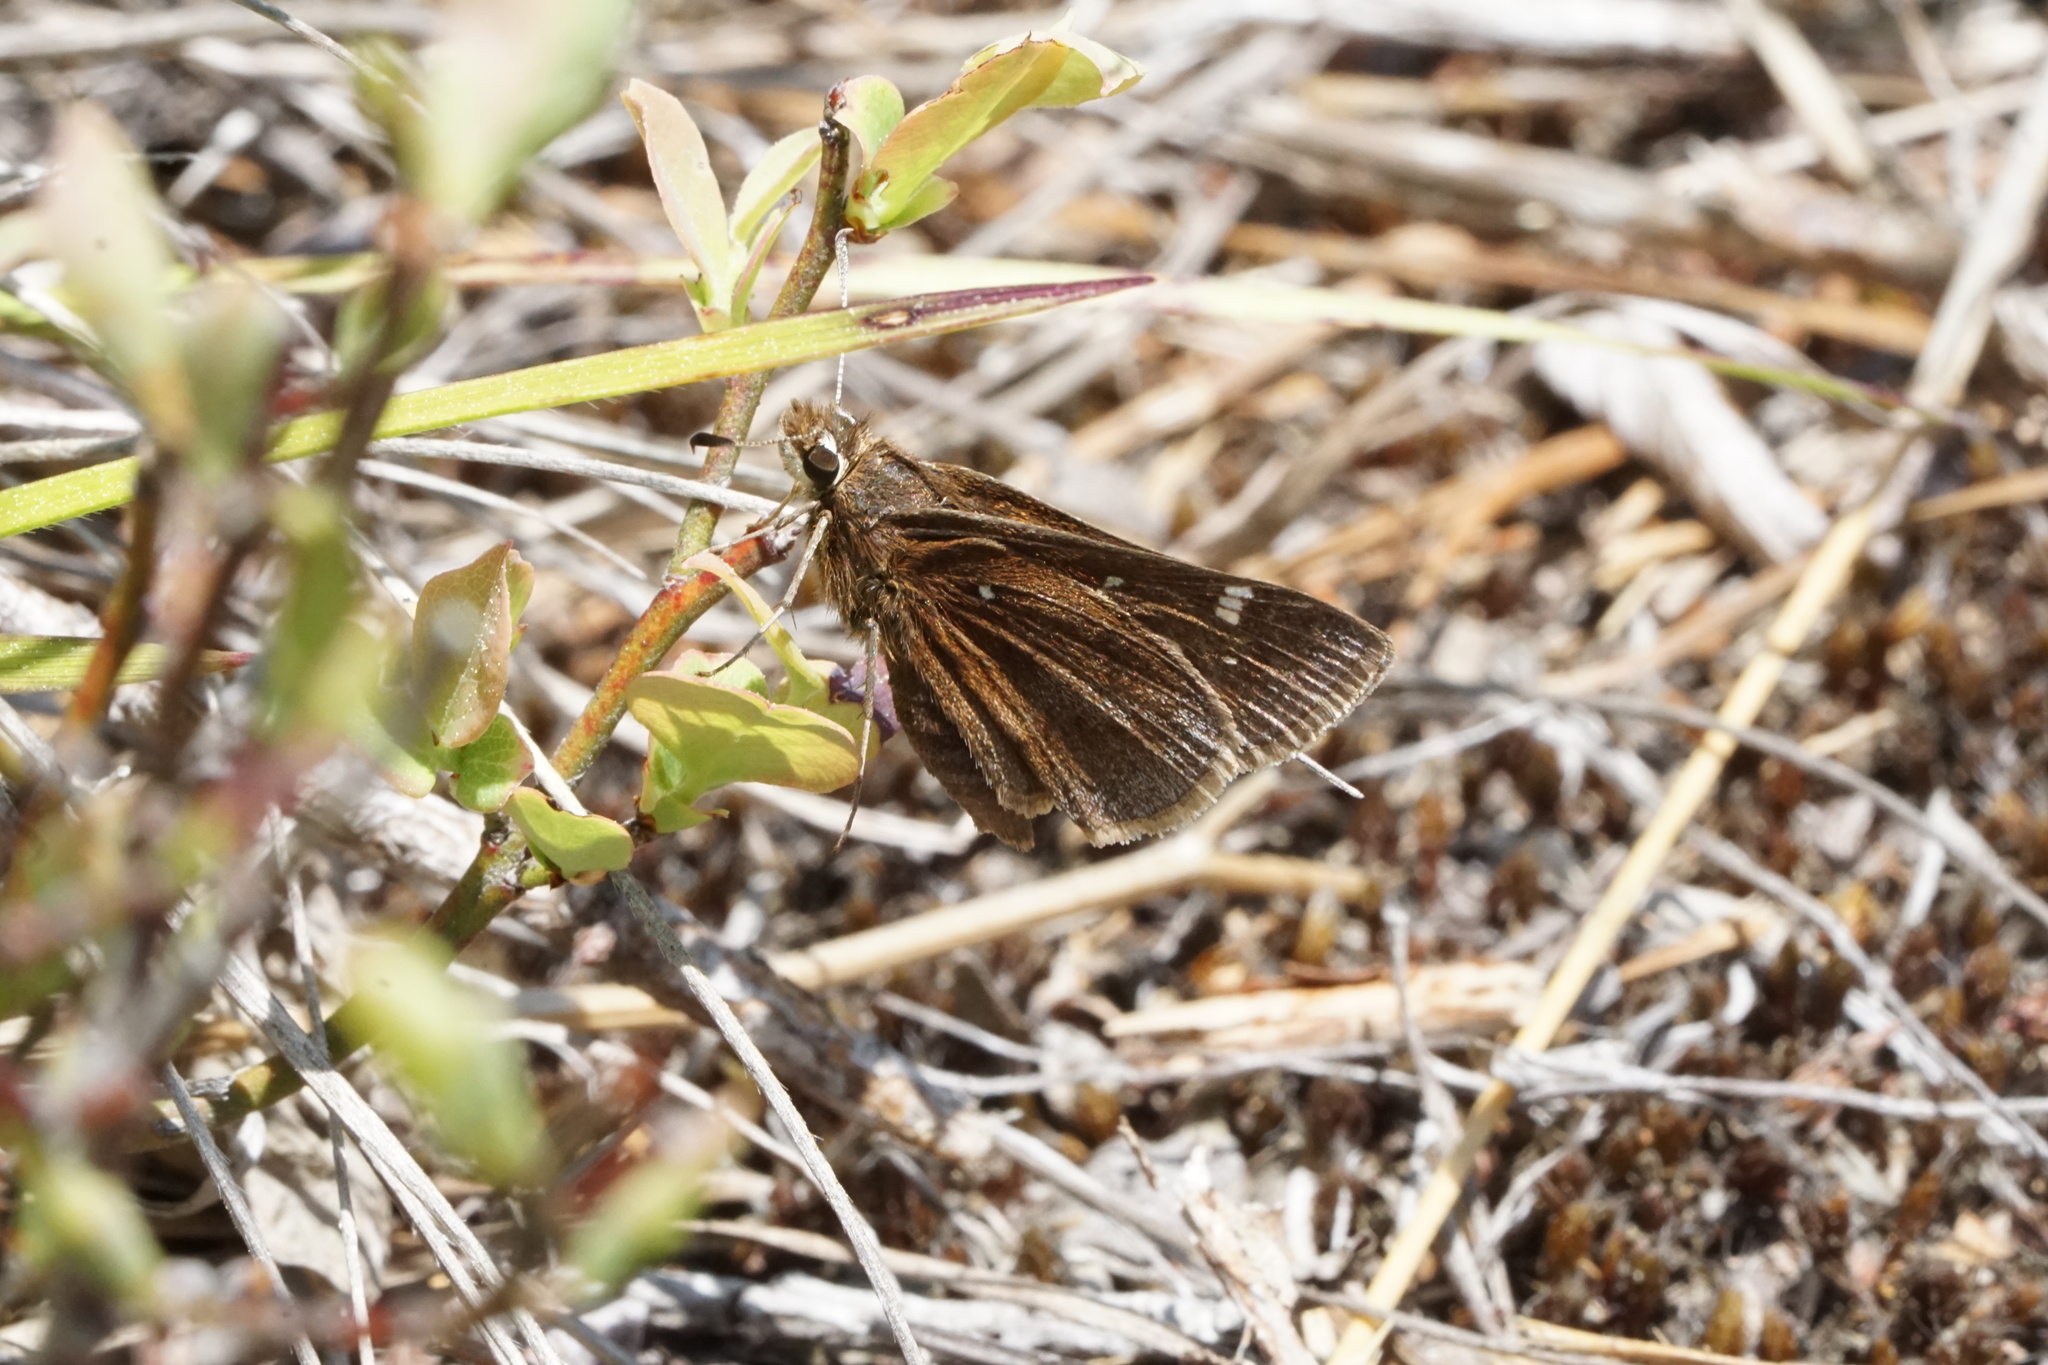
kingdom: Animalia
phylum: Arthropoda
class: Insecta
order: Lepidoptera
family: Hesperiidae
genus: Atrytonopsis
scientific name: Atrytonopsis hianna
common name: Dusted skipper
